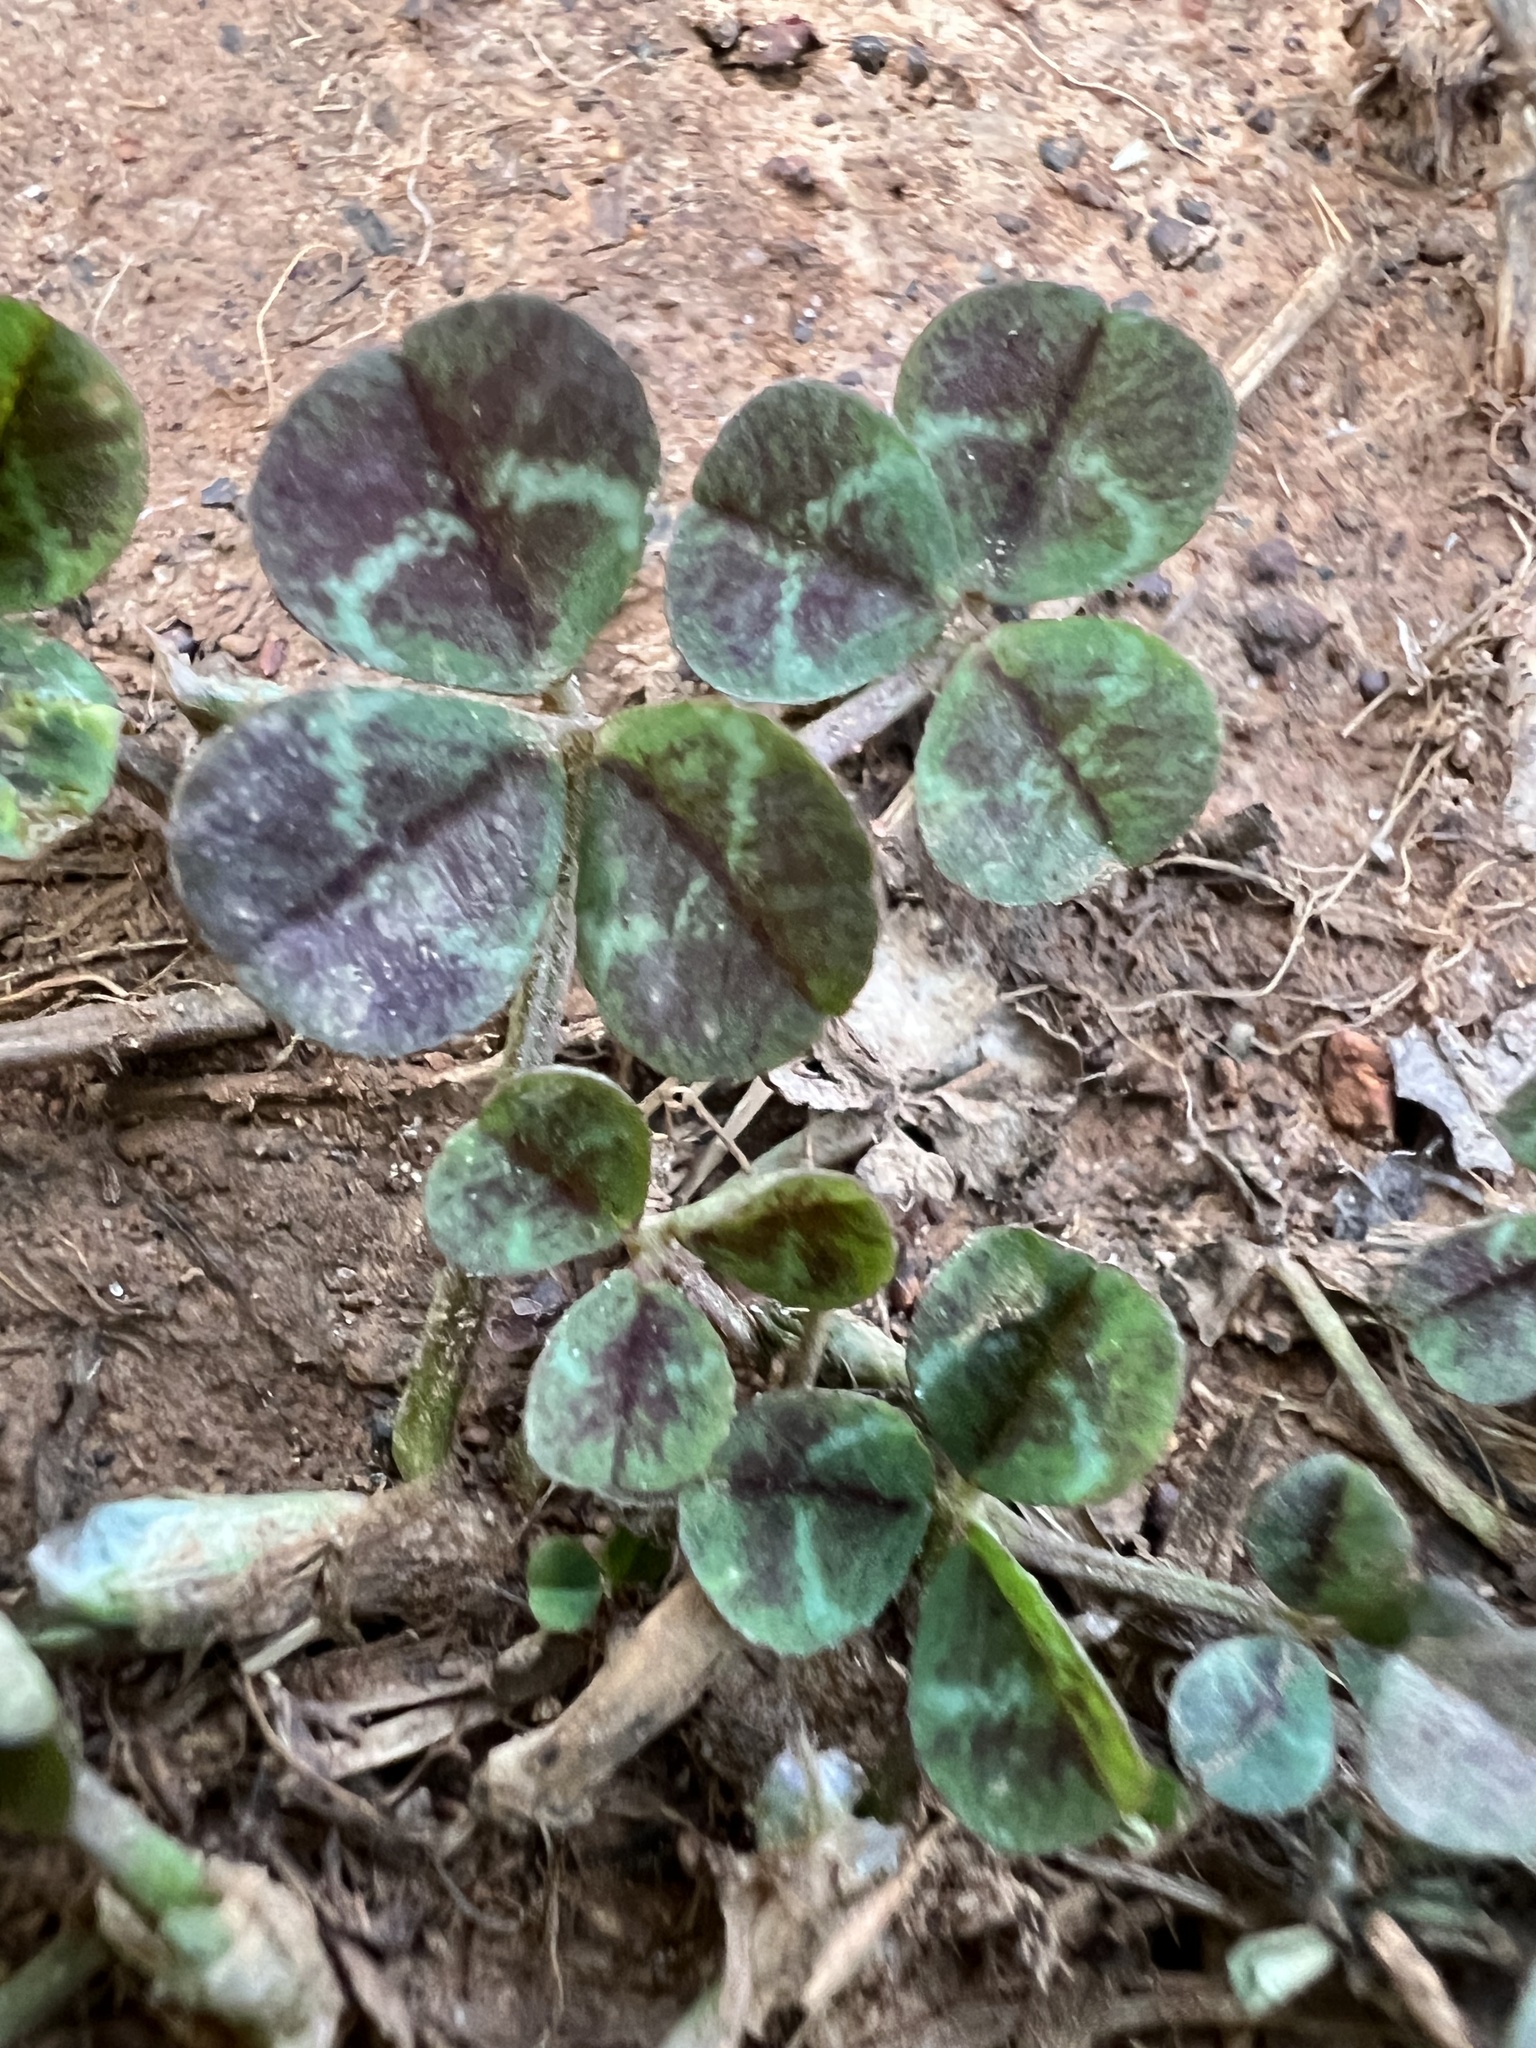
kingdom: Plantae
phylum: Tracheophyta
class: Magnoliopsida
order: Fabales
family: Fabaceae
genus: Trifolium
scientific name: Trifolium repens
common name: White clover
